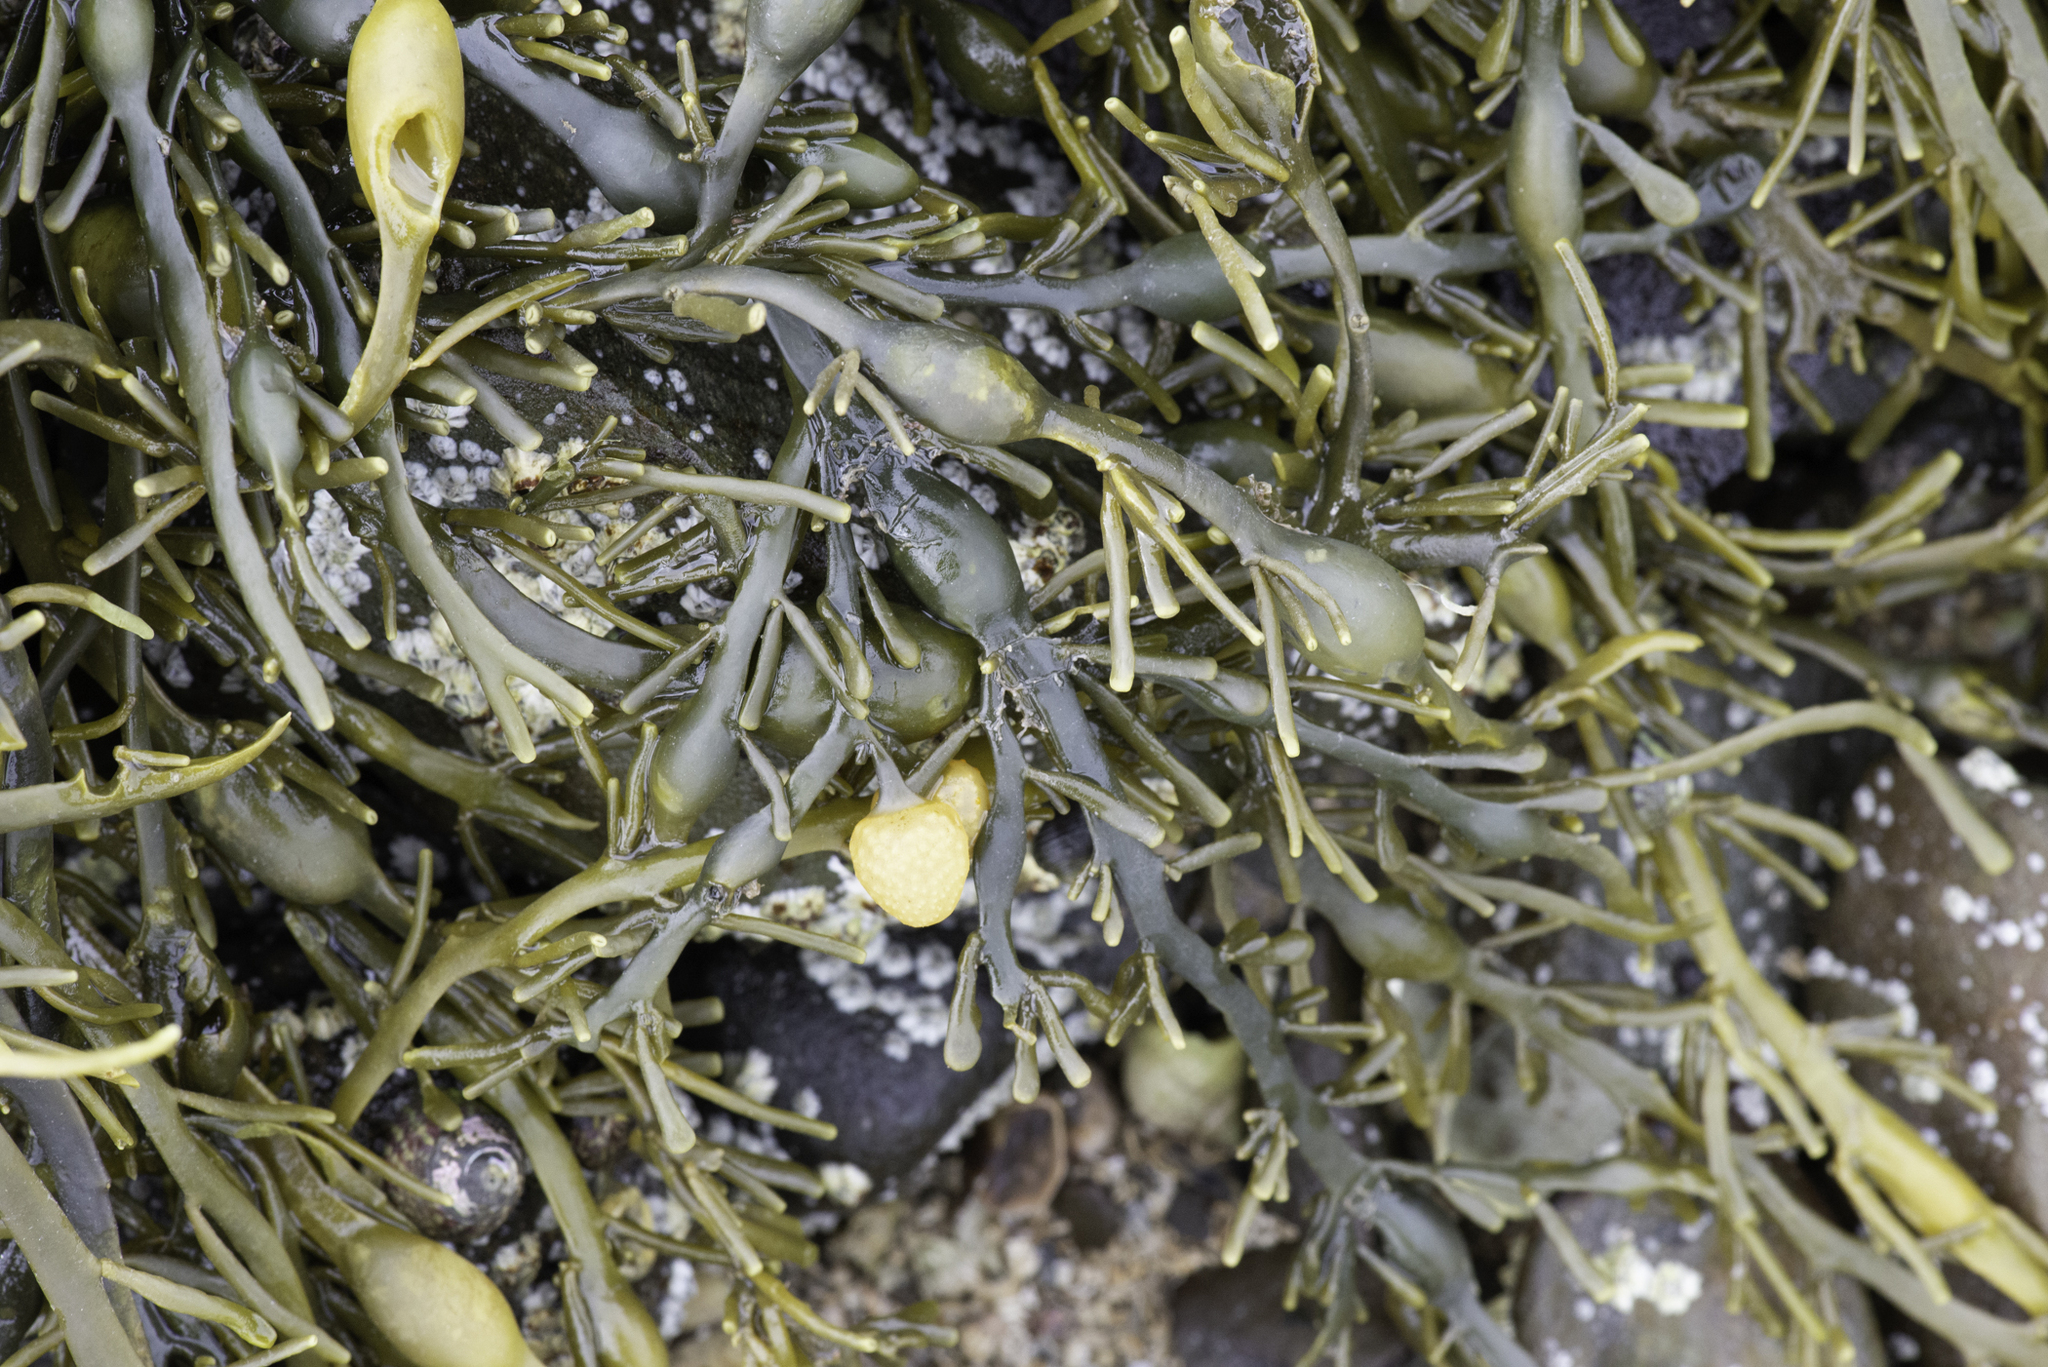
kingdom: Chromista
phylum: Ochrophyta
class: Phaeophyceae
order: Fucales
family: Fucaceae
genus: Ascophyllum
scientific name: Ascophyllum nodosum
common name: Knotted wrack
